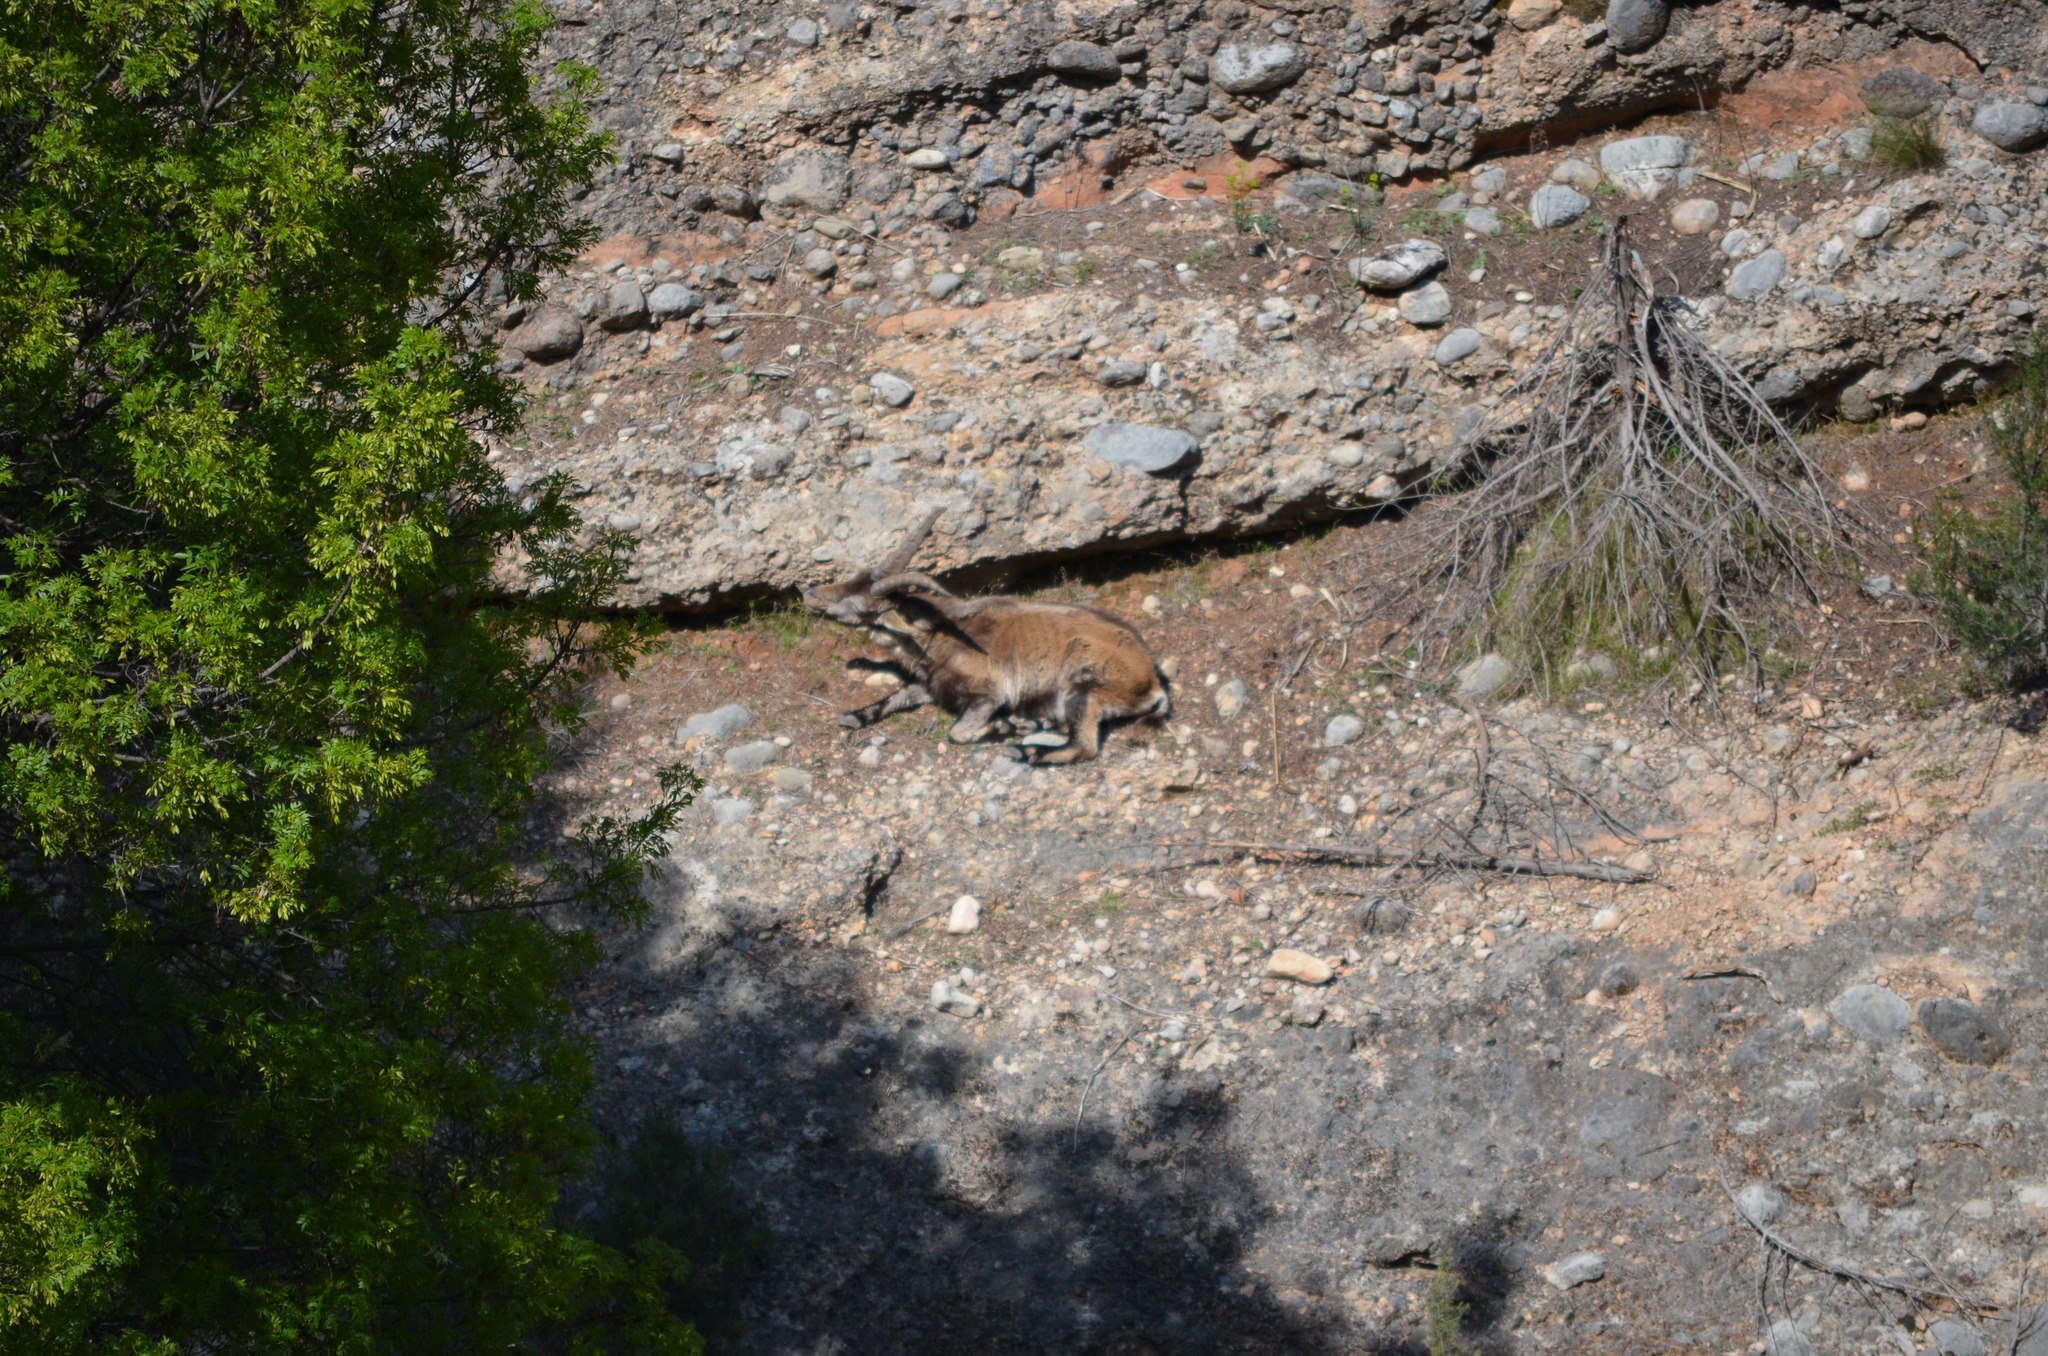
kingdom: Animalia
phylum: Chordata
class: Mammalia
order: Artiodactyla
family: Bovidae
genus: Capra
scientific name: Capra pyrenaica
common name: Spanish ibex
